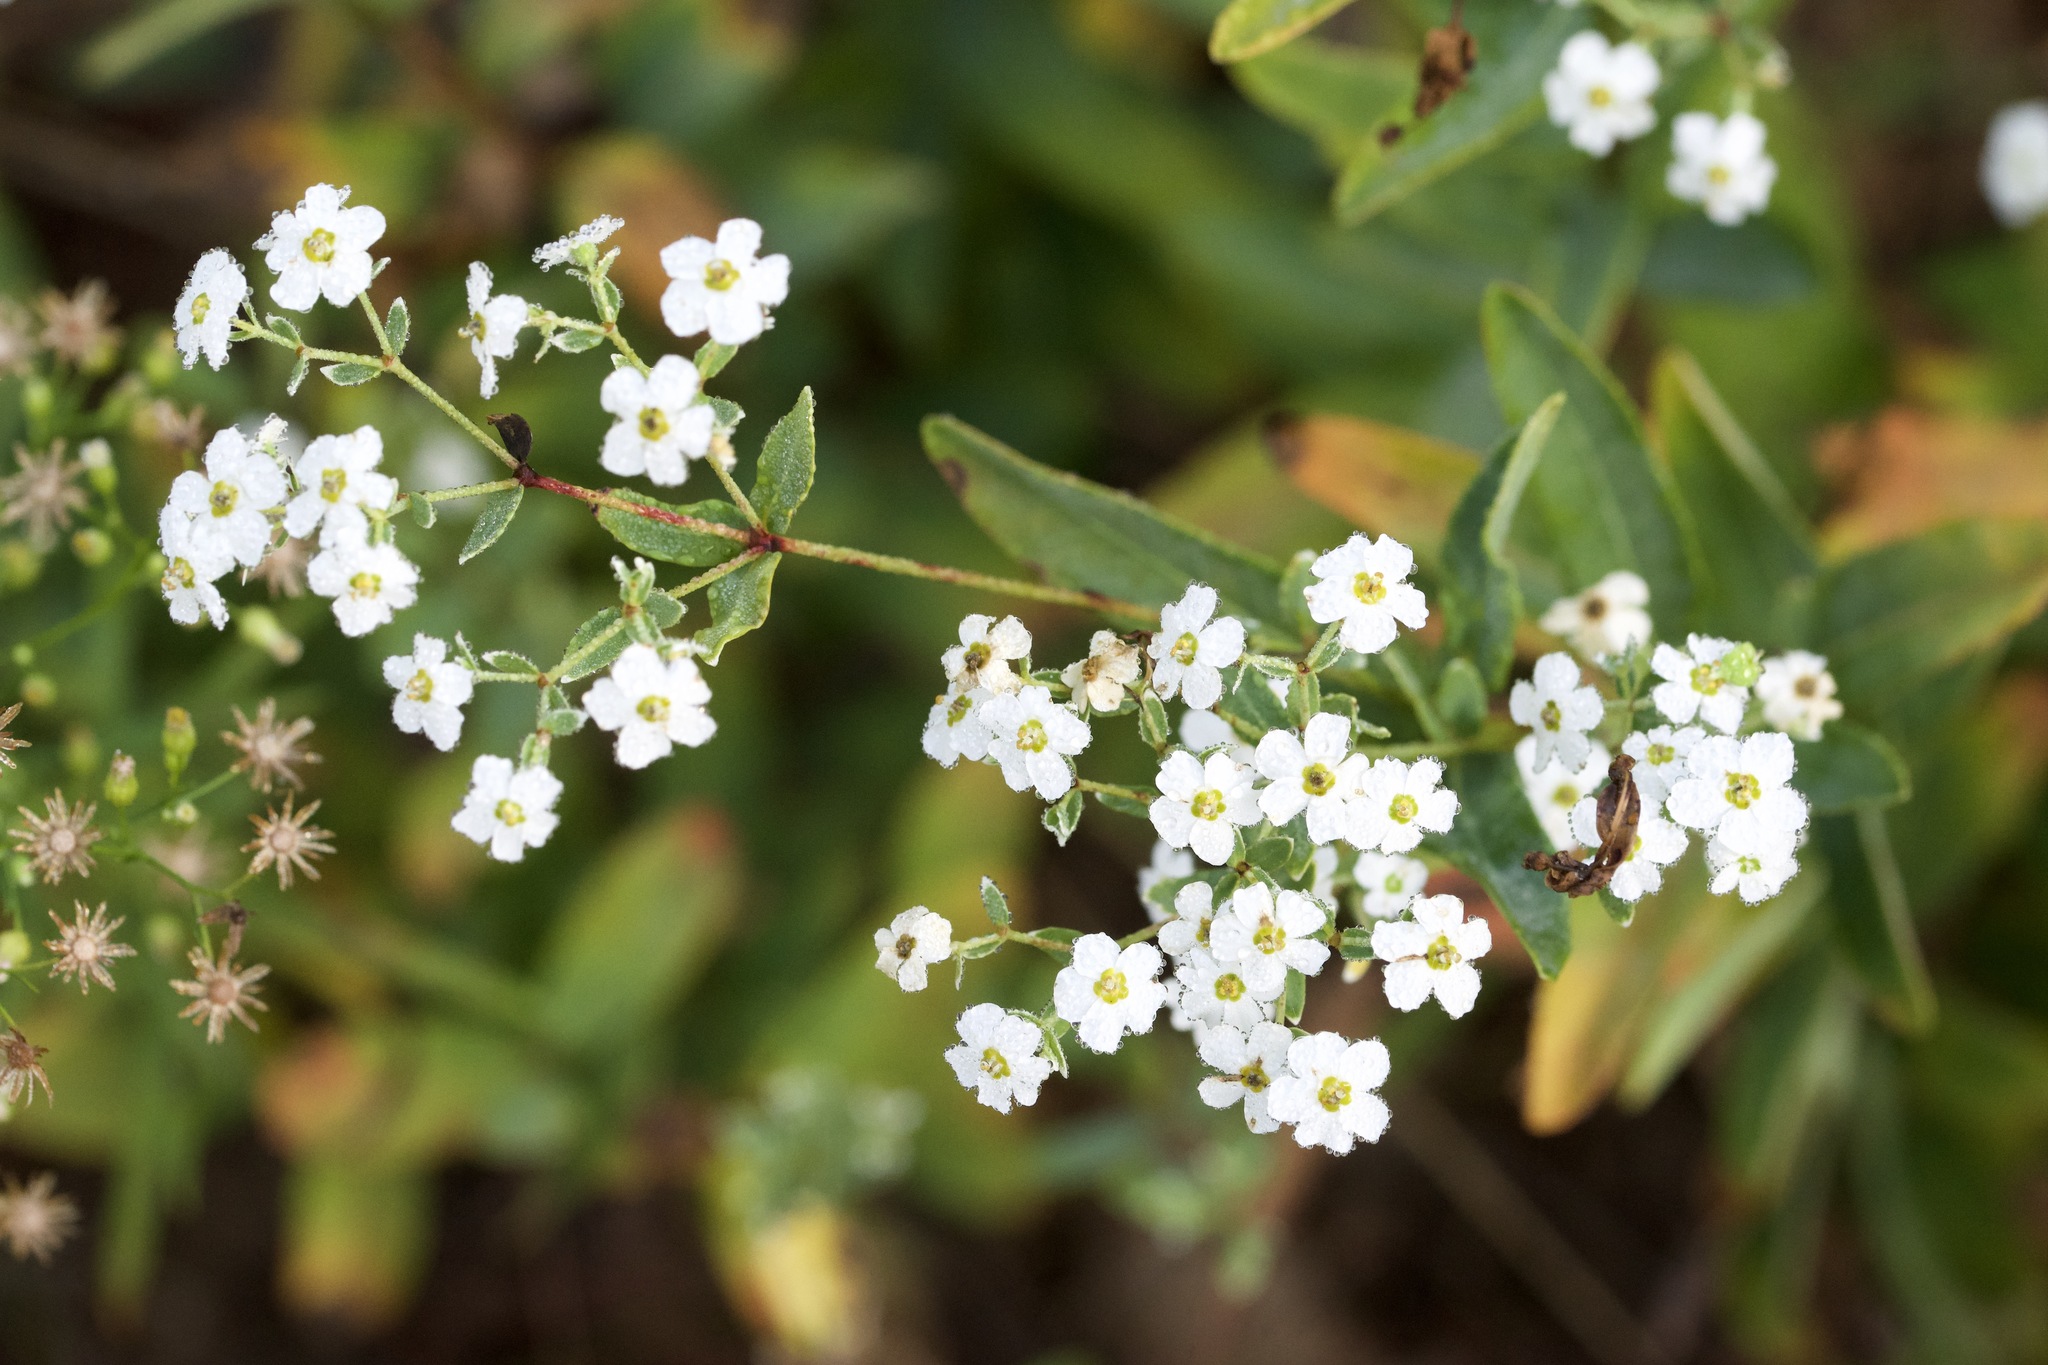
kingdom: Plantae
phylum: Tracheophyta
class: Magnoliopsida
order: Malpighiales
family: Euphorbiaceae
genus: Euphorbia
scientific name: Euphorbia corollata
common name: Flowering spurge
